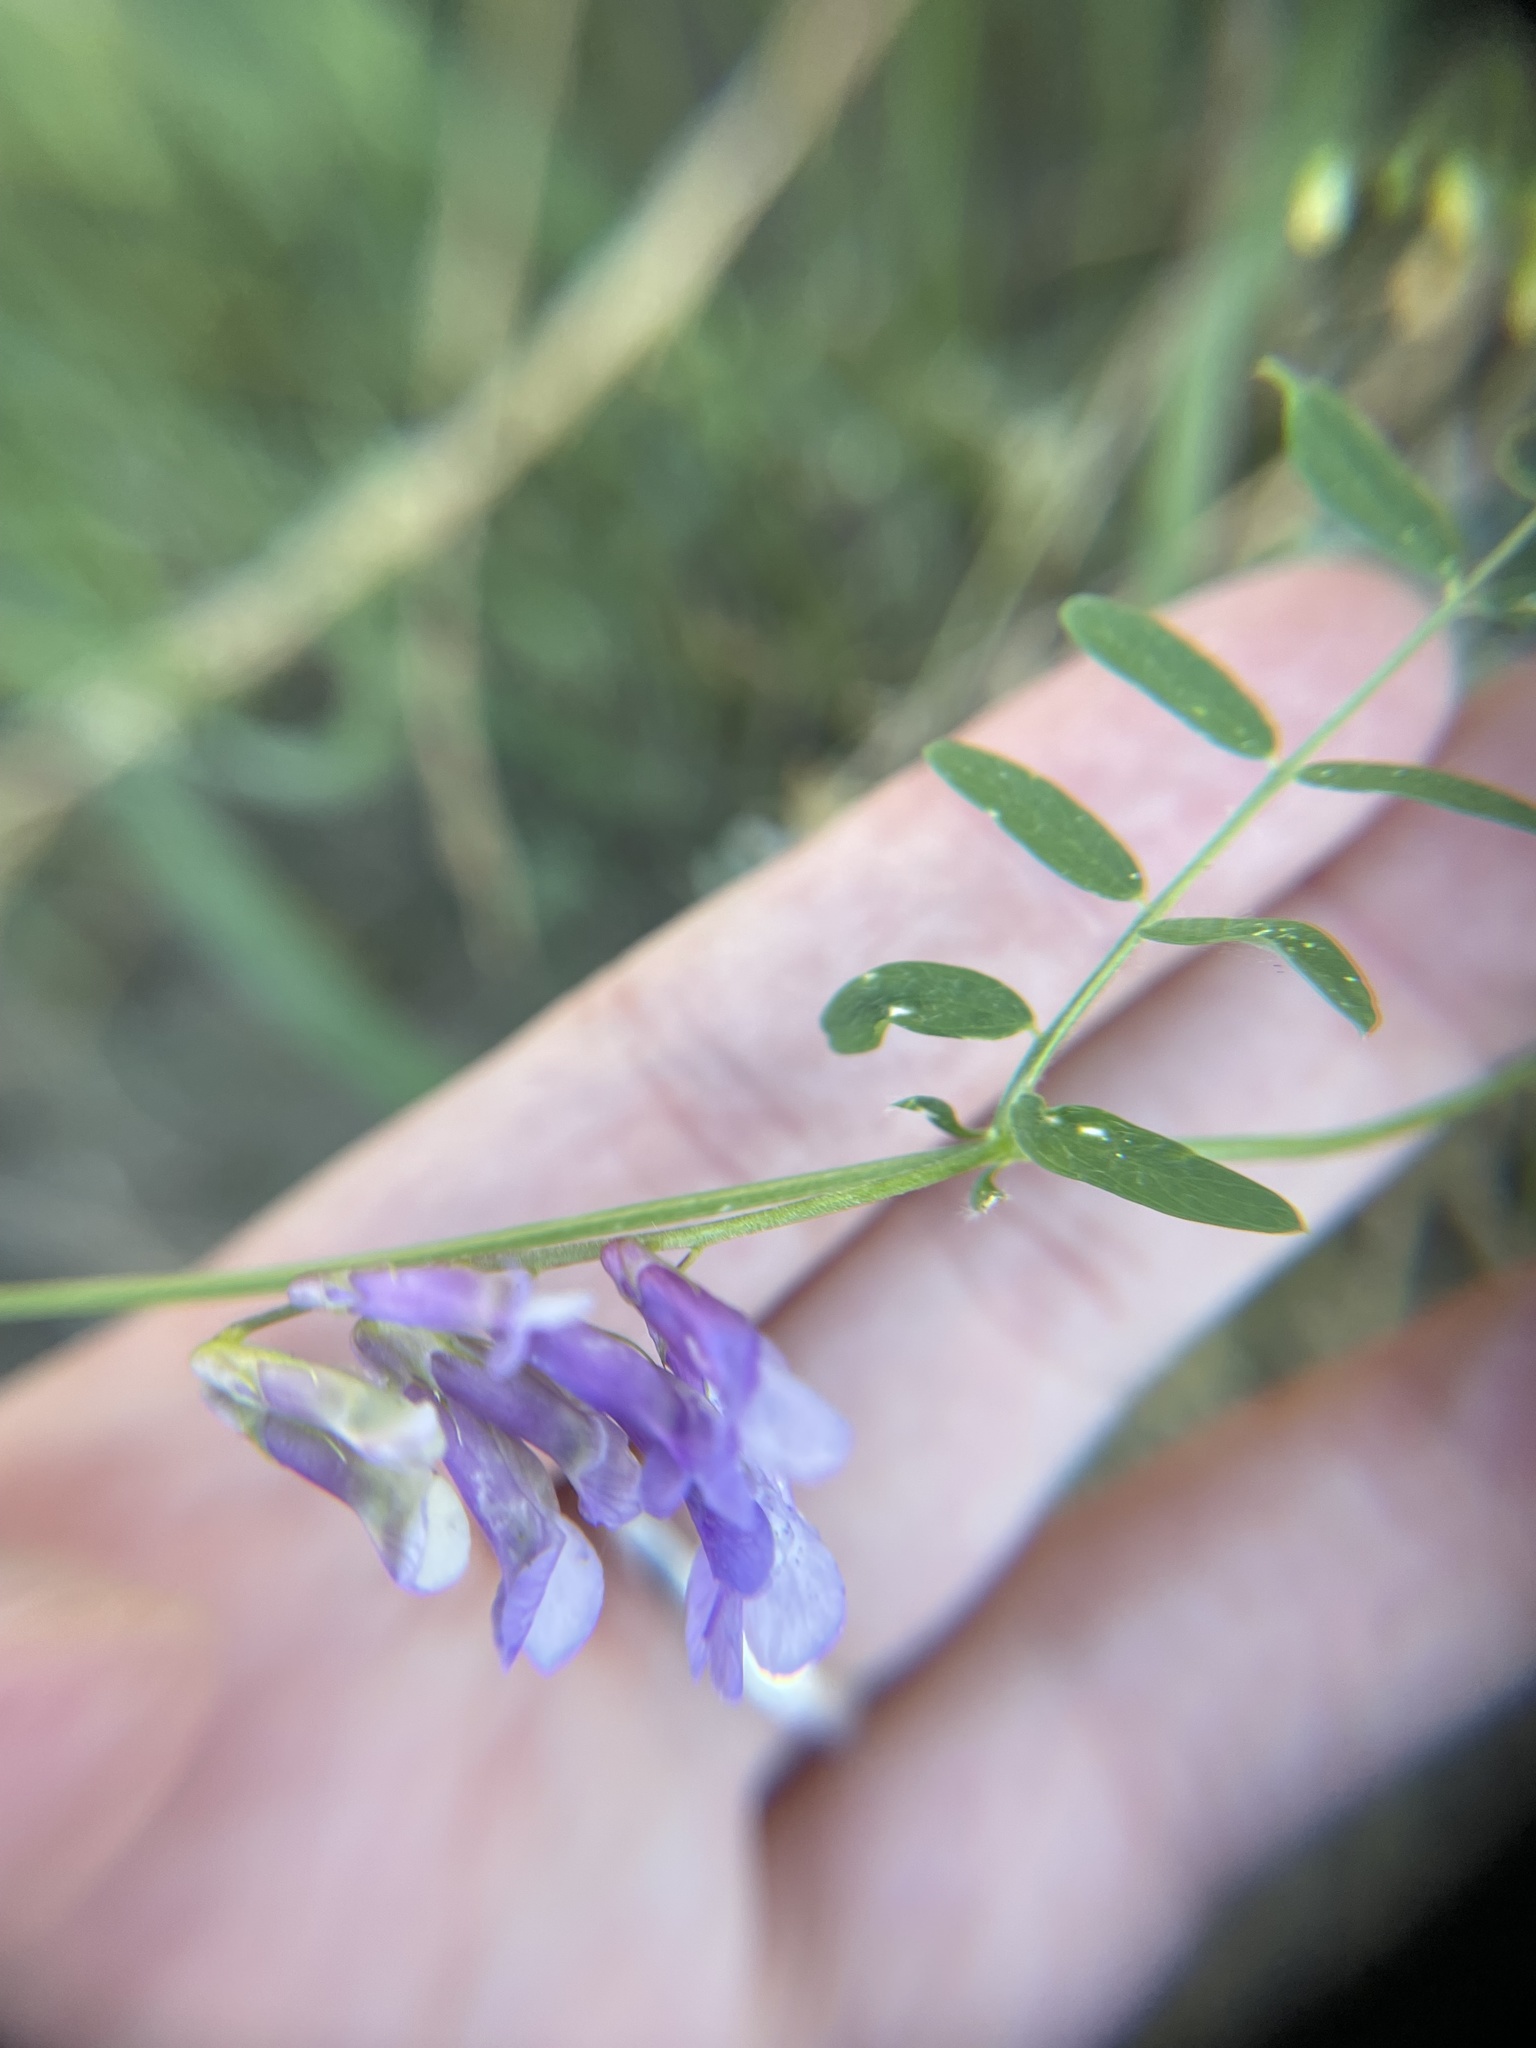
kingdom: Plantae
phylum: Tracheophyta
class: Magnoliopsida
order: Fabales
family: Fabaceae
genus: Vicia
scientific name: Vicia villosa
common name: Fodder vetch
